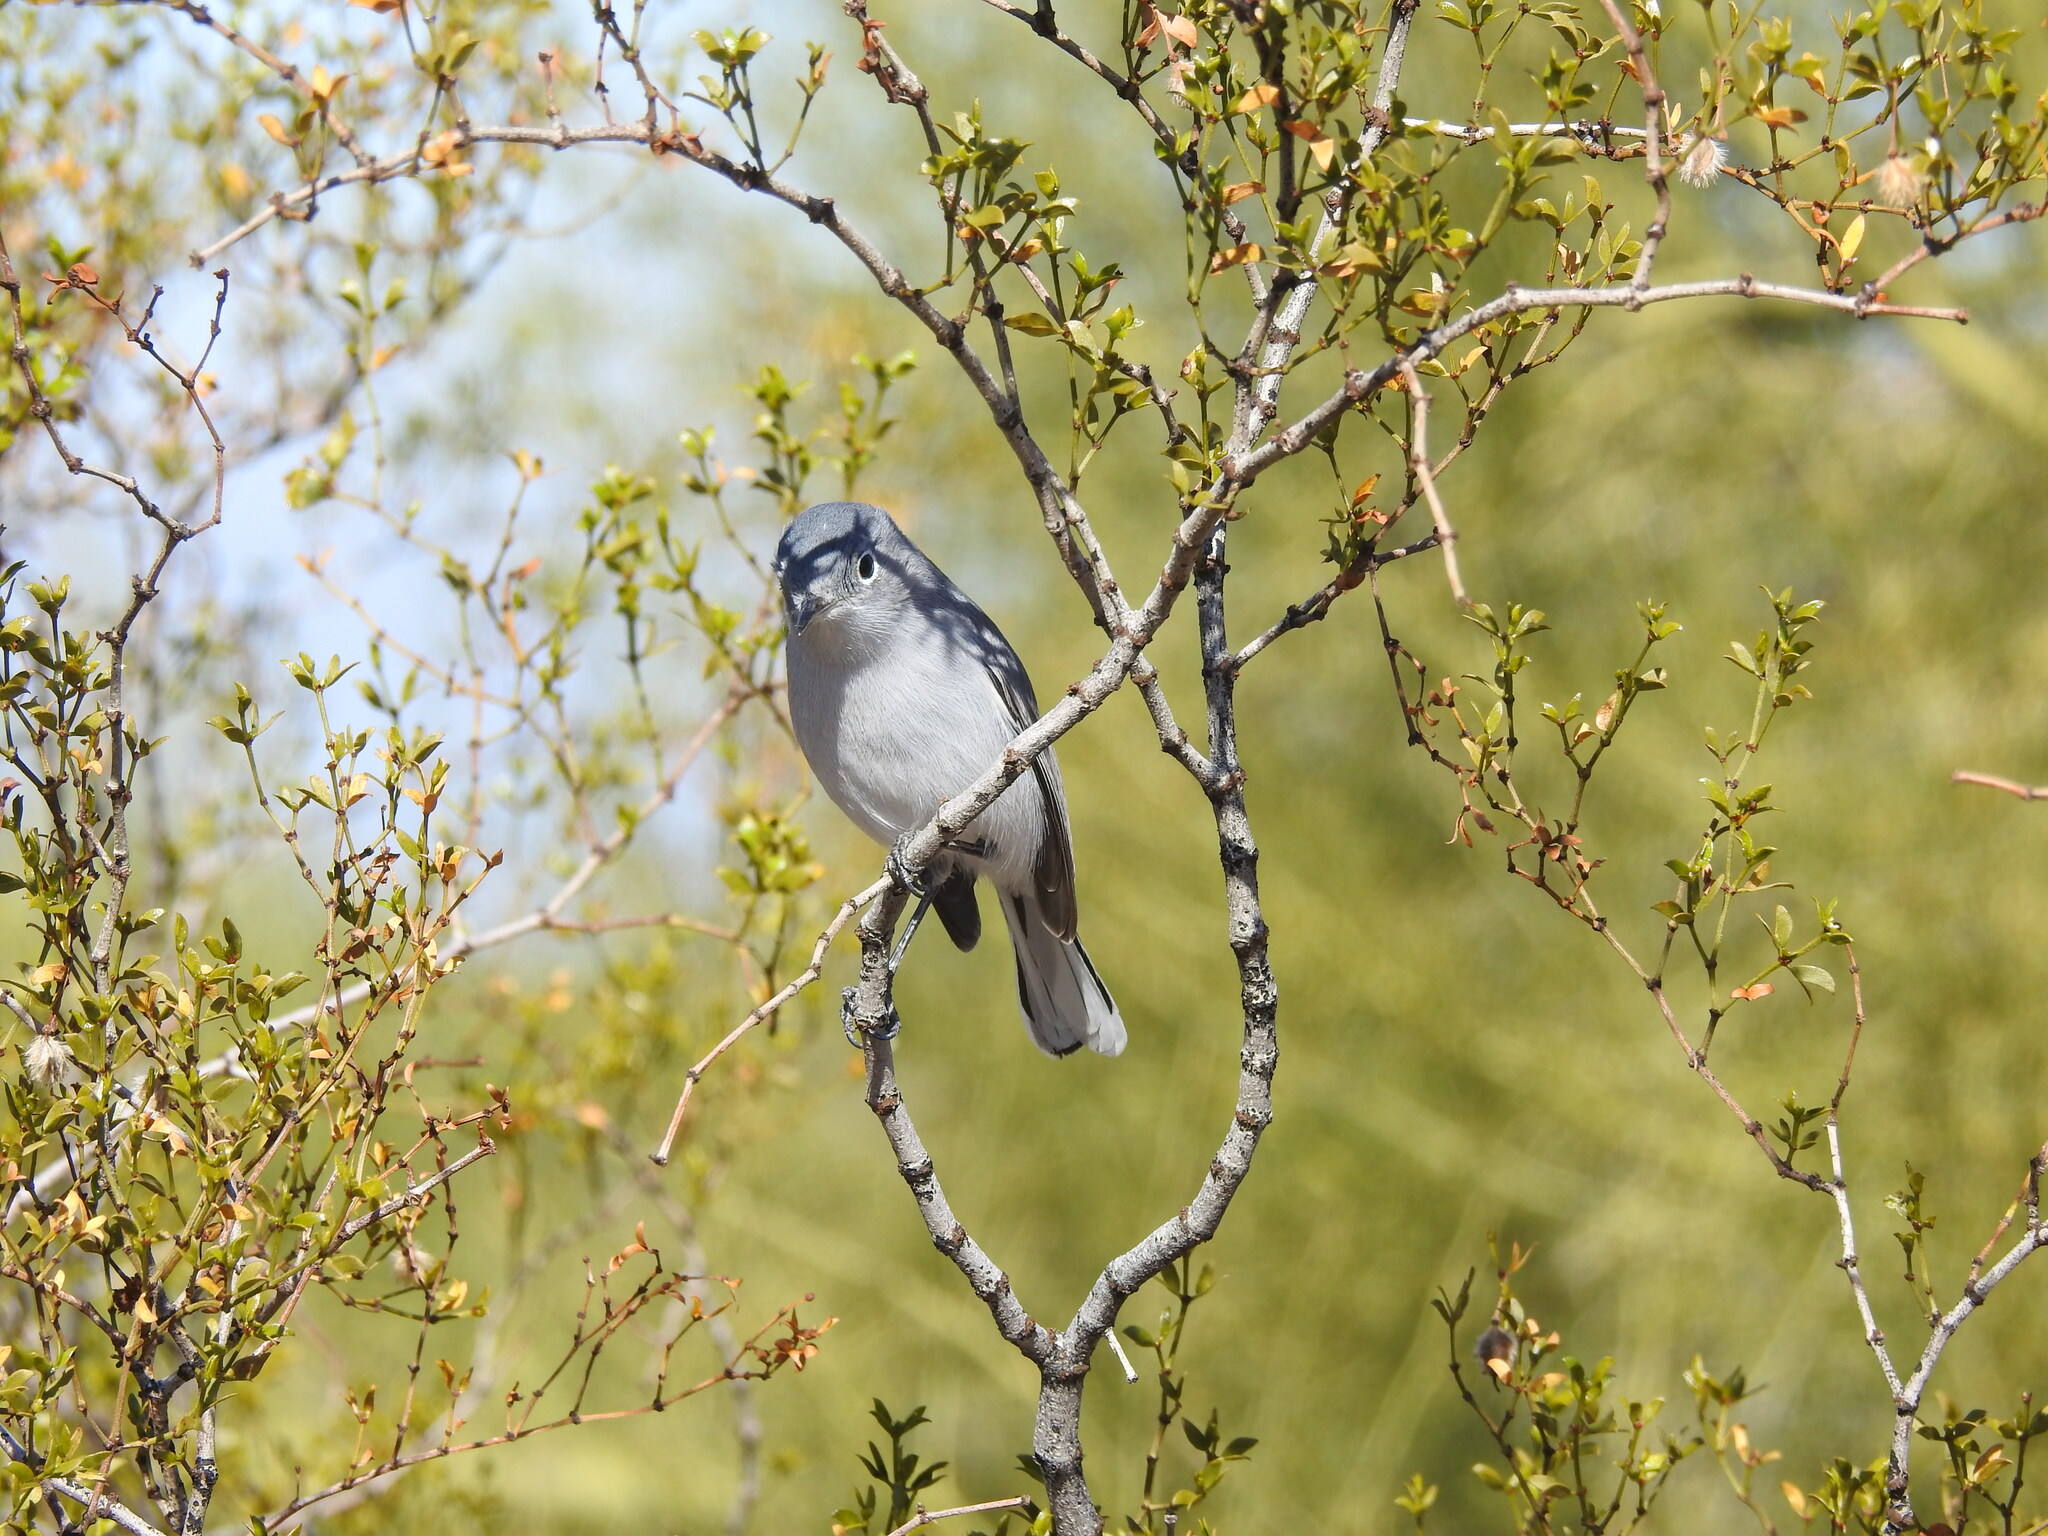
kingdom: Animalia
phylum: Chordata
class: Aves
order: Passeriformes
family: Polioptilidae
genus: Polioptila
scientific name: Polioptila caerulea
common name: Blue-gray gnatcatcher
